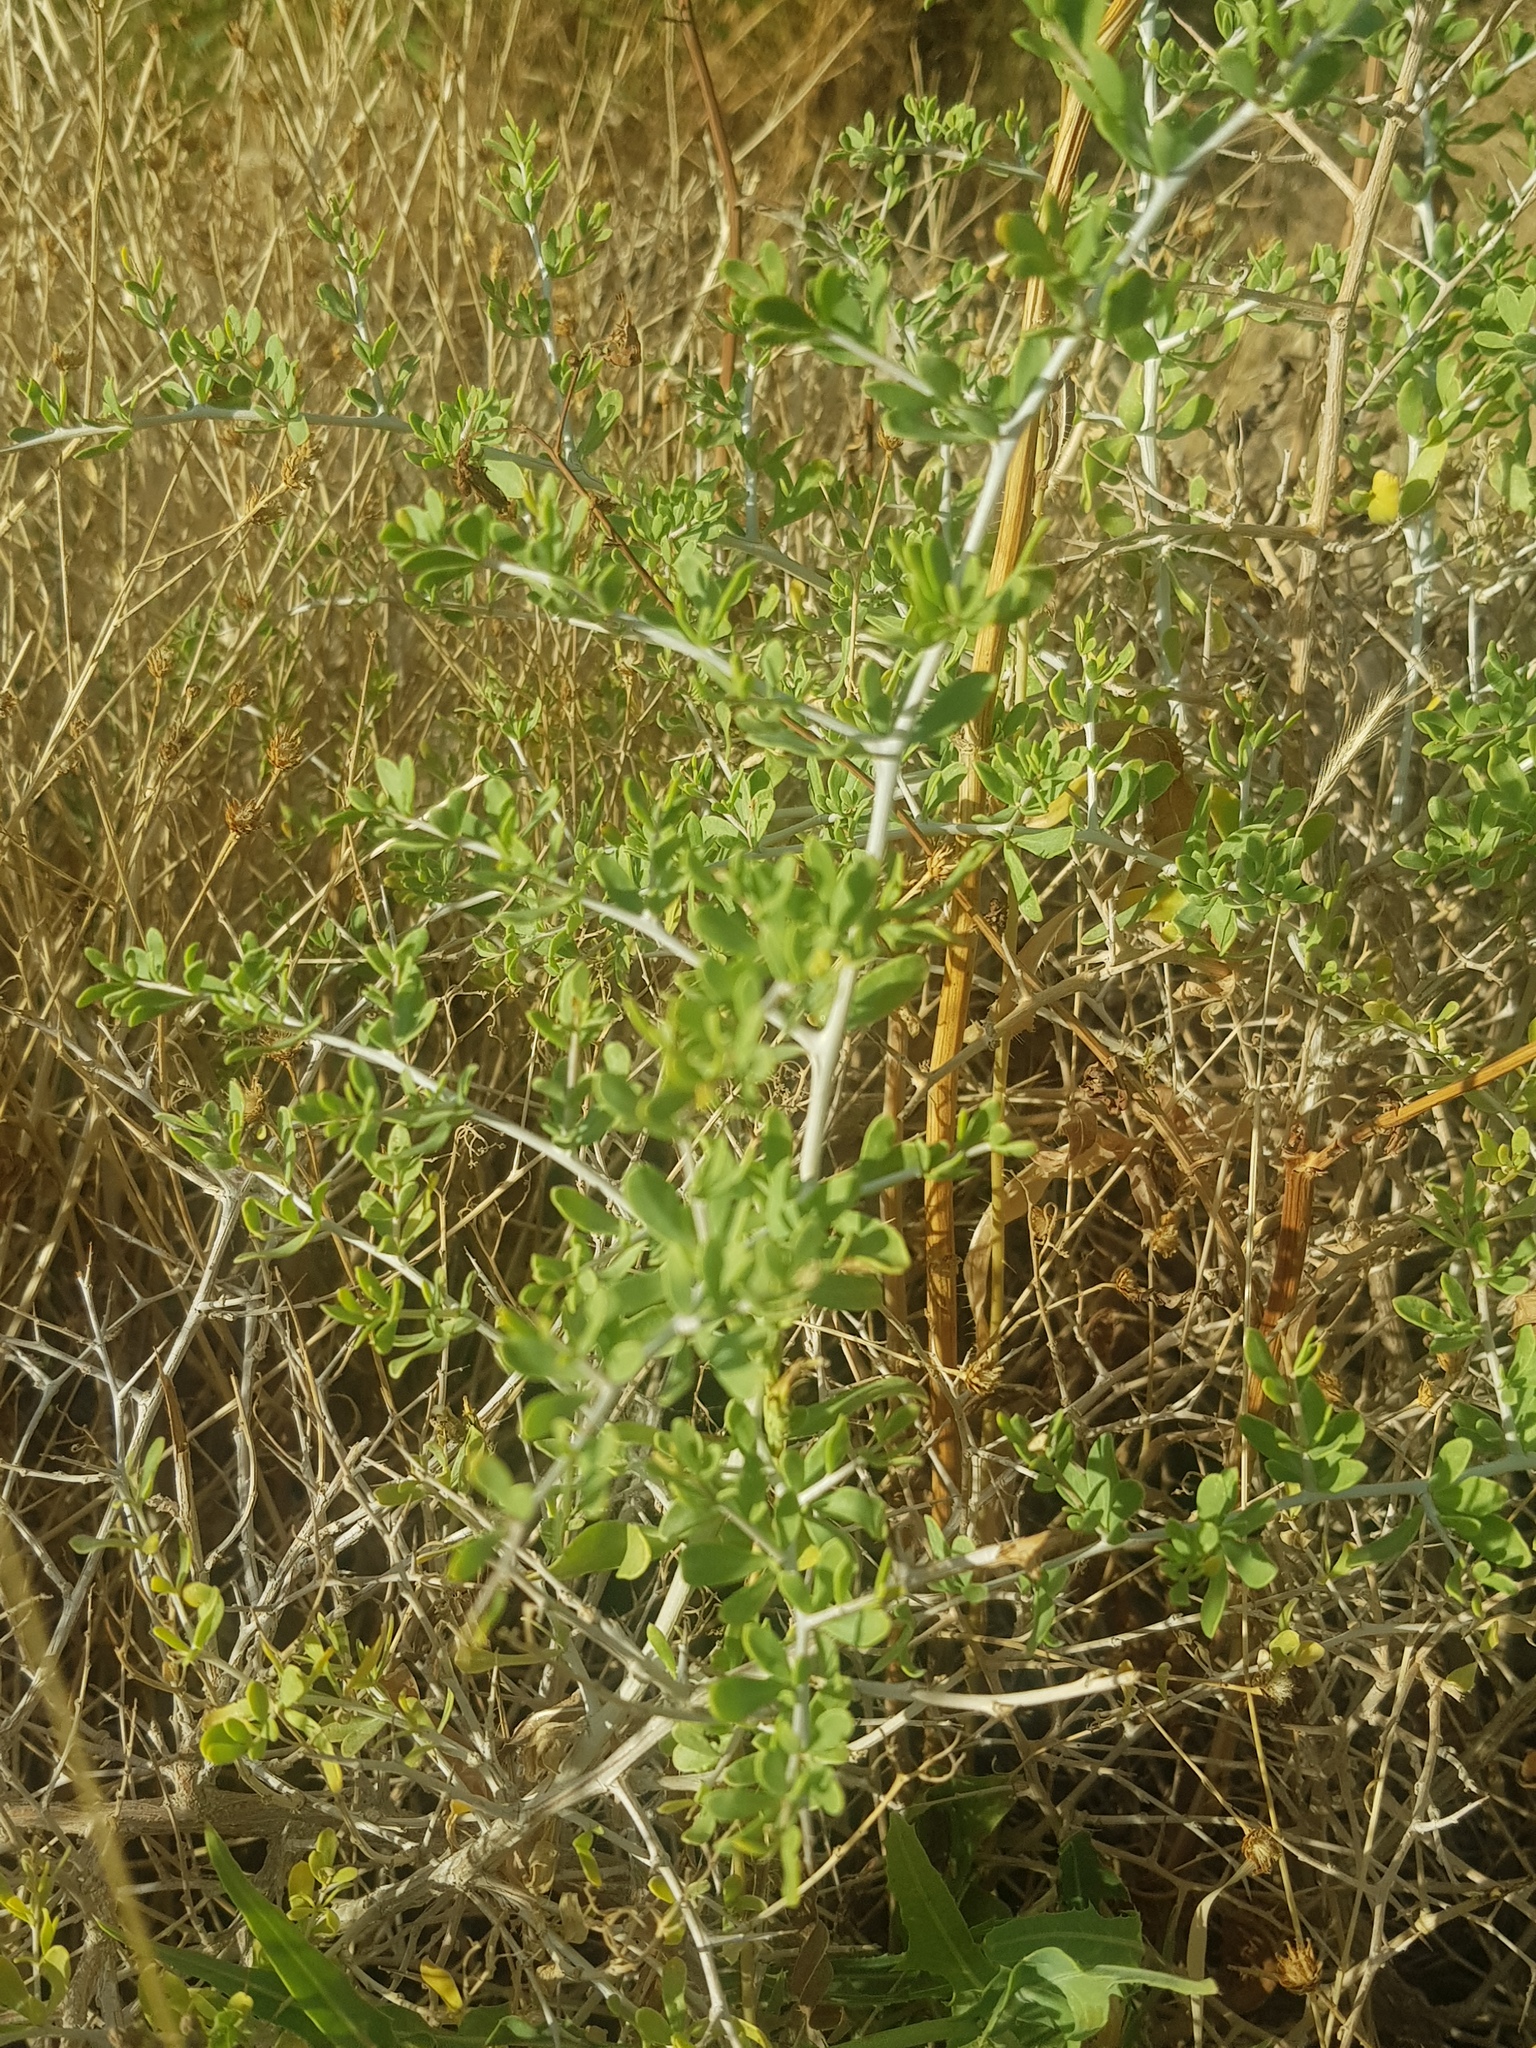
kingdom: Plantae
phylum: Tracheophyta
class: Magnoliopsida
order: Sapindales
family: Nitrariaceae
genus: Nitraria
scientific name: Nitraria sibirica
